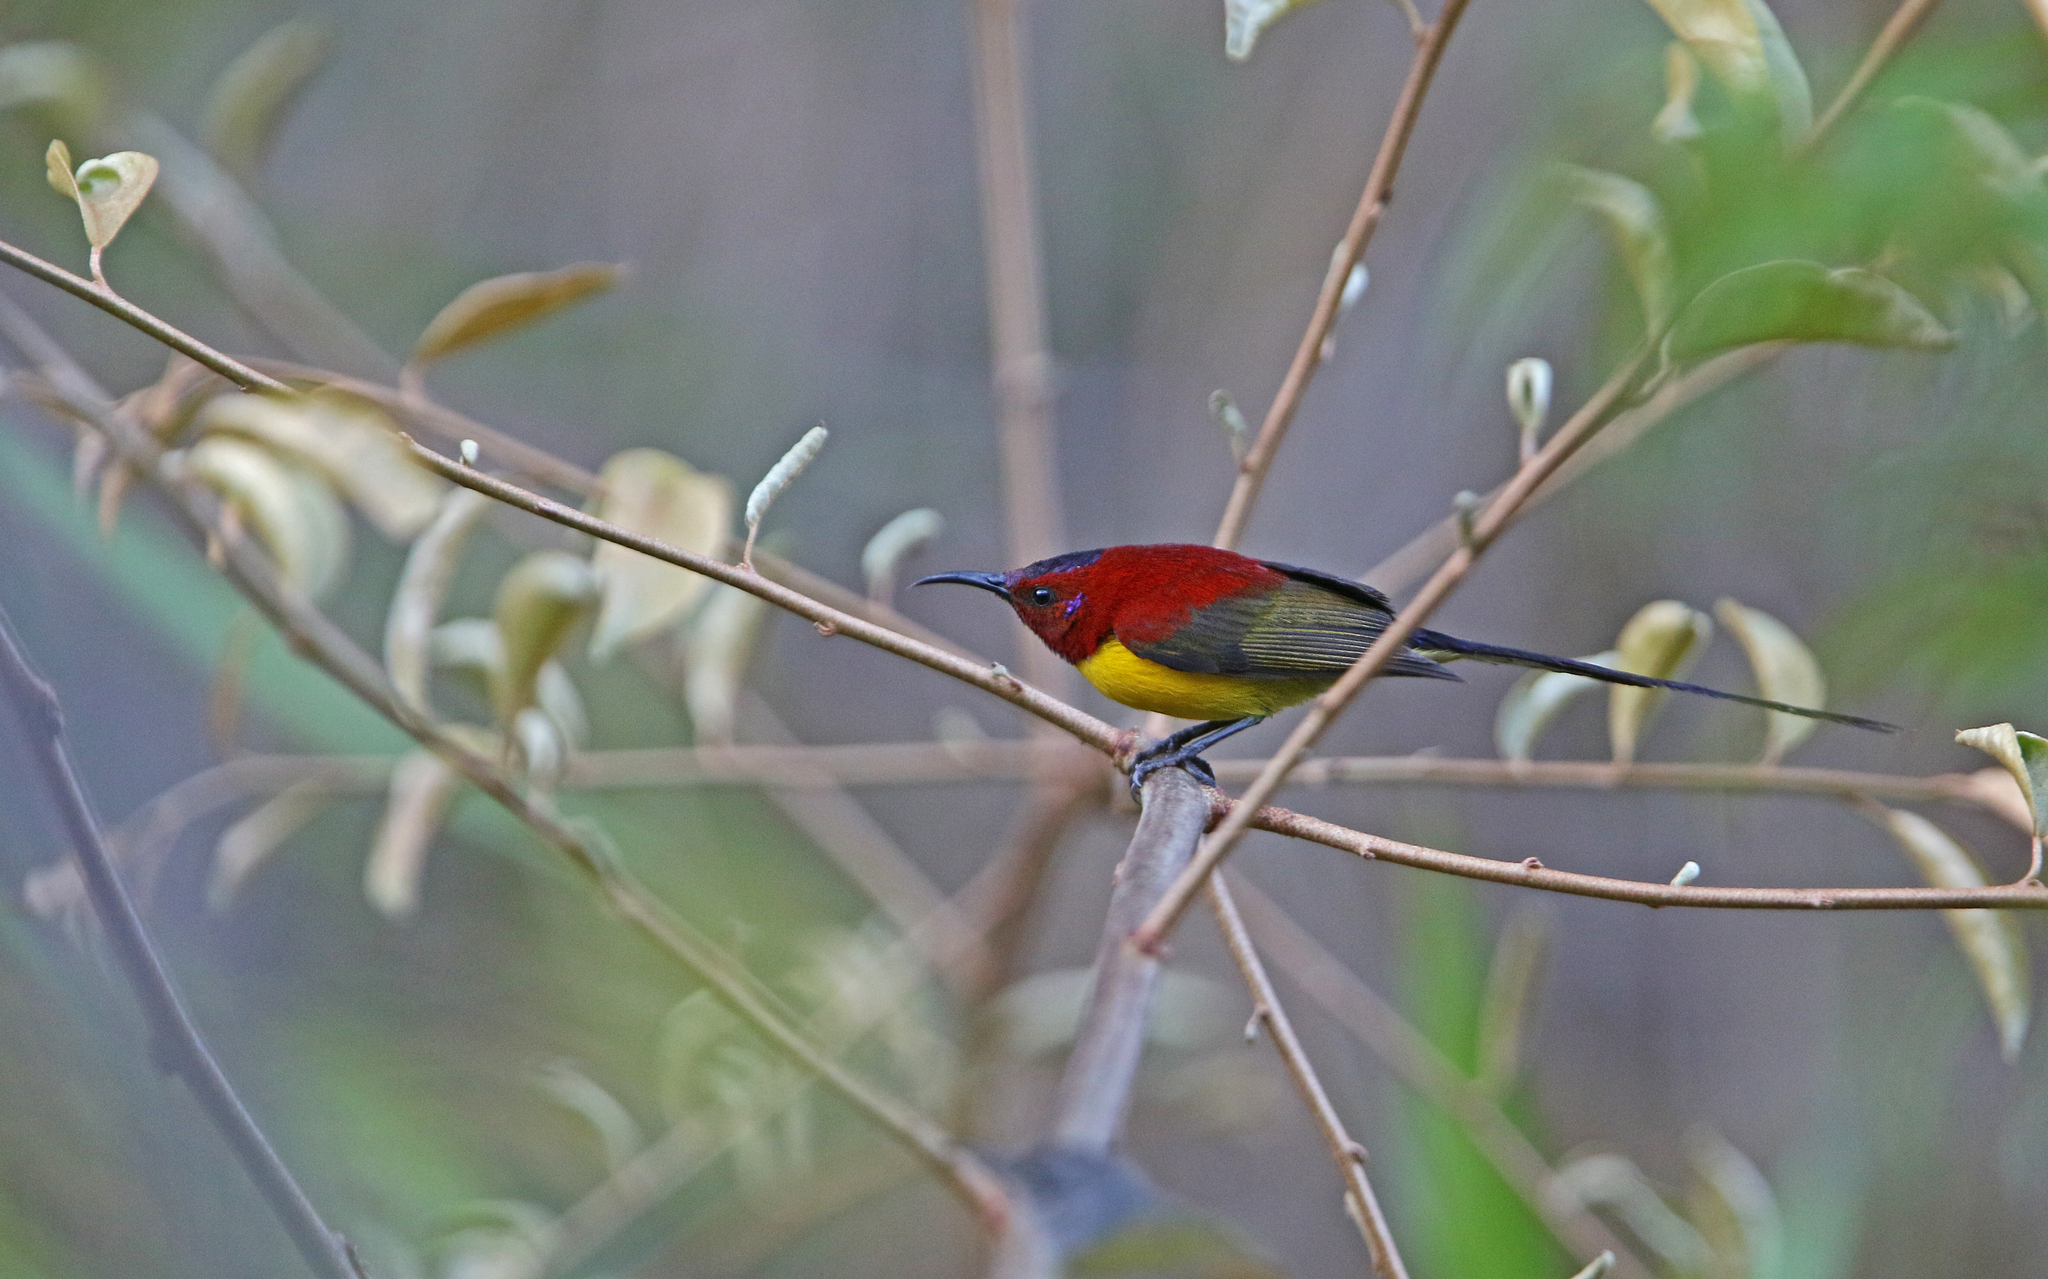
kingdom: Animalia
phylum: Chordata
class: Aves
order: Passeriformes
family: Nectariniidae
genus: Aethopyga
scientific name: Aethopyga gouldiae
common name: Mrs. gould's sunbird
